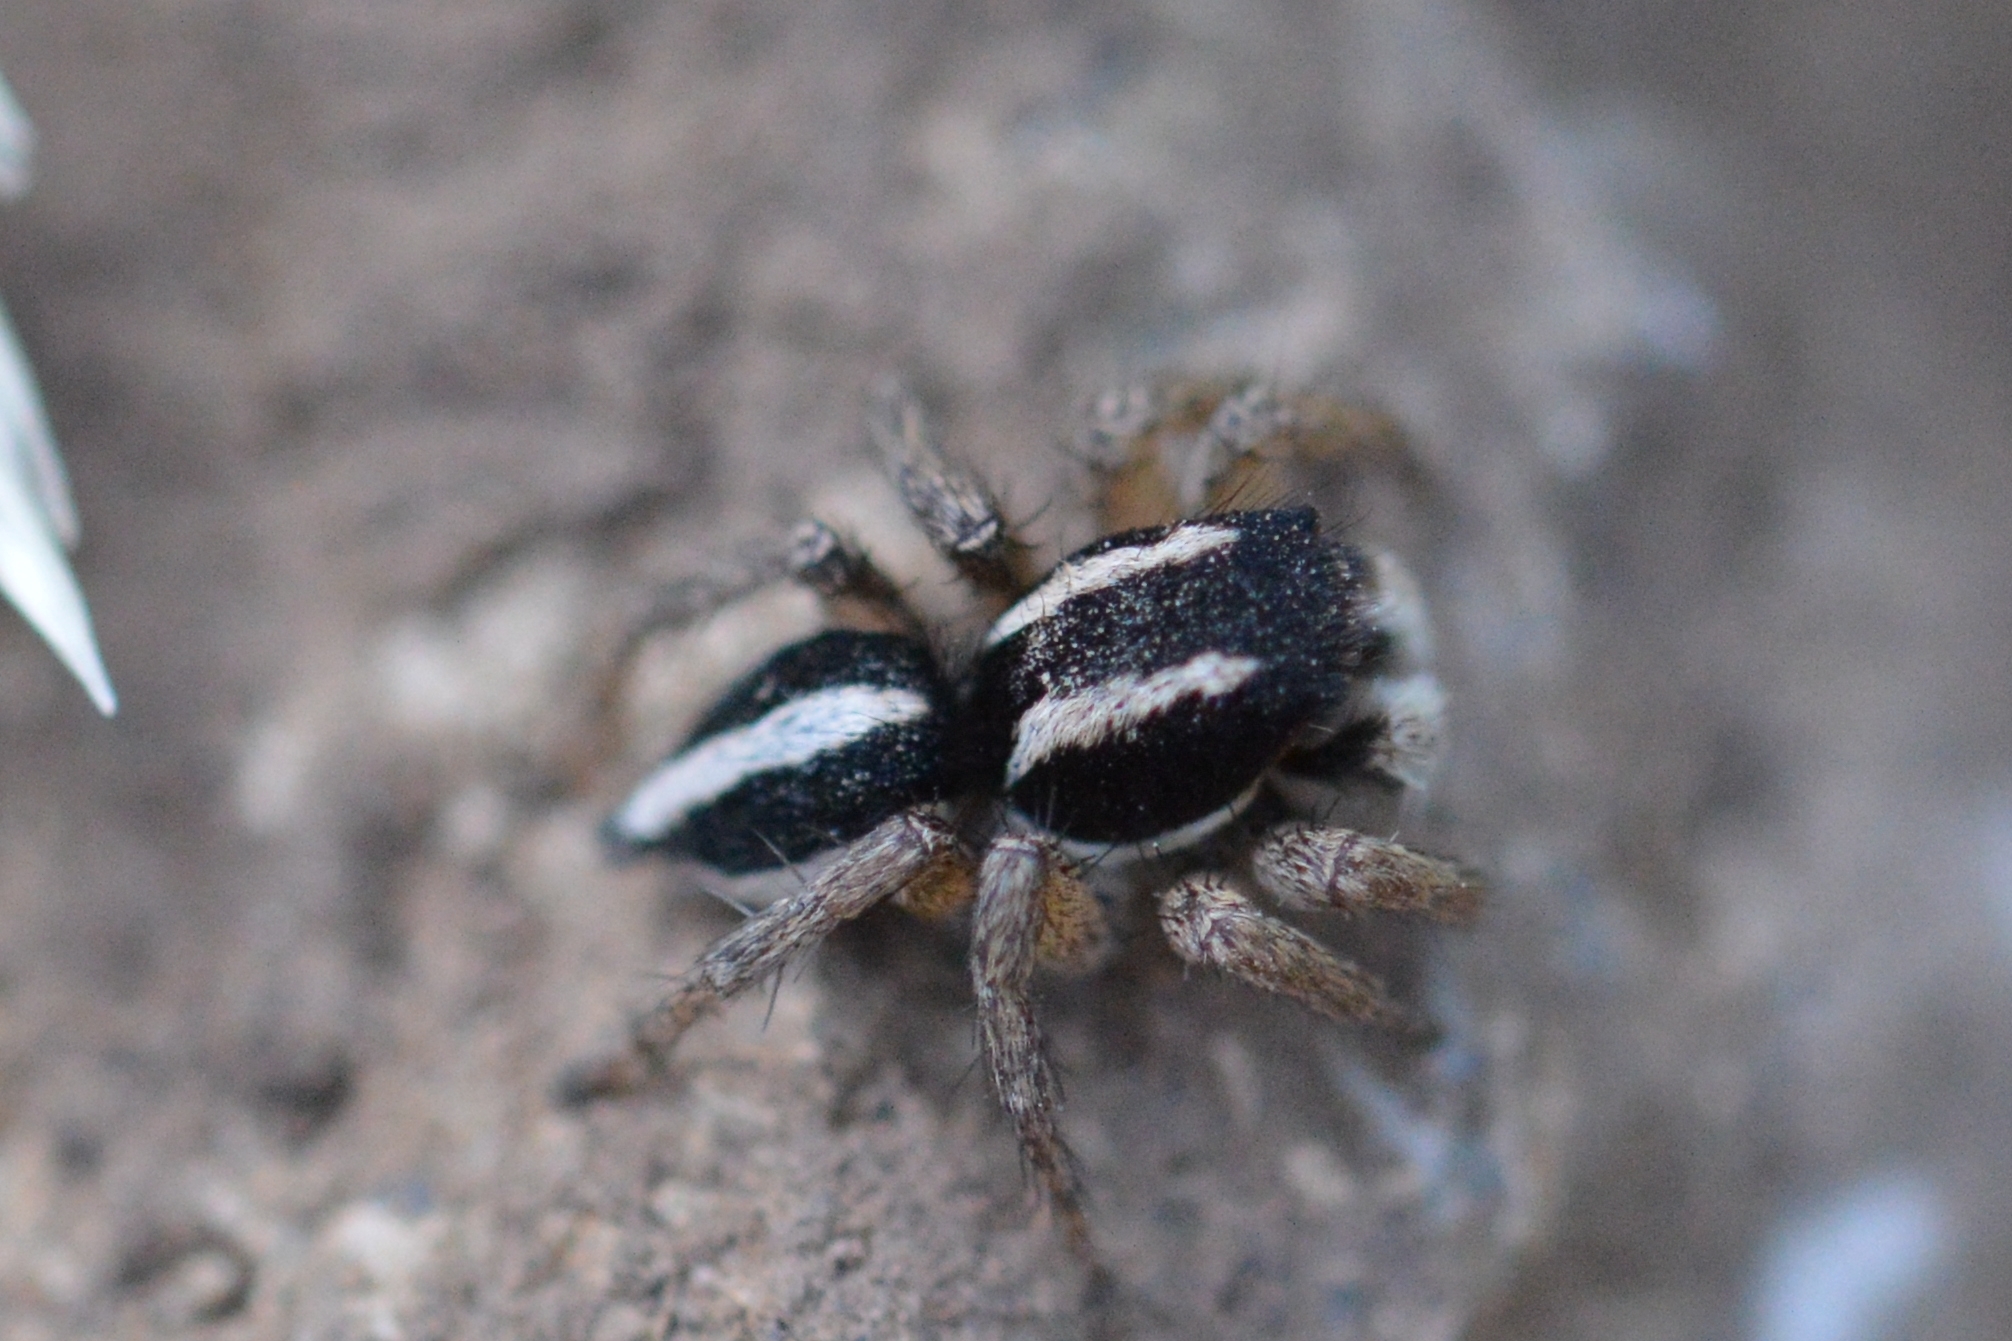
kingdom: Animalia
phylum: Arthropoda
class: Arachnida
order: Araneae
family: Salticidae
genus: Aelurillus
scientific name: Aelurillus luctuosus
